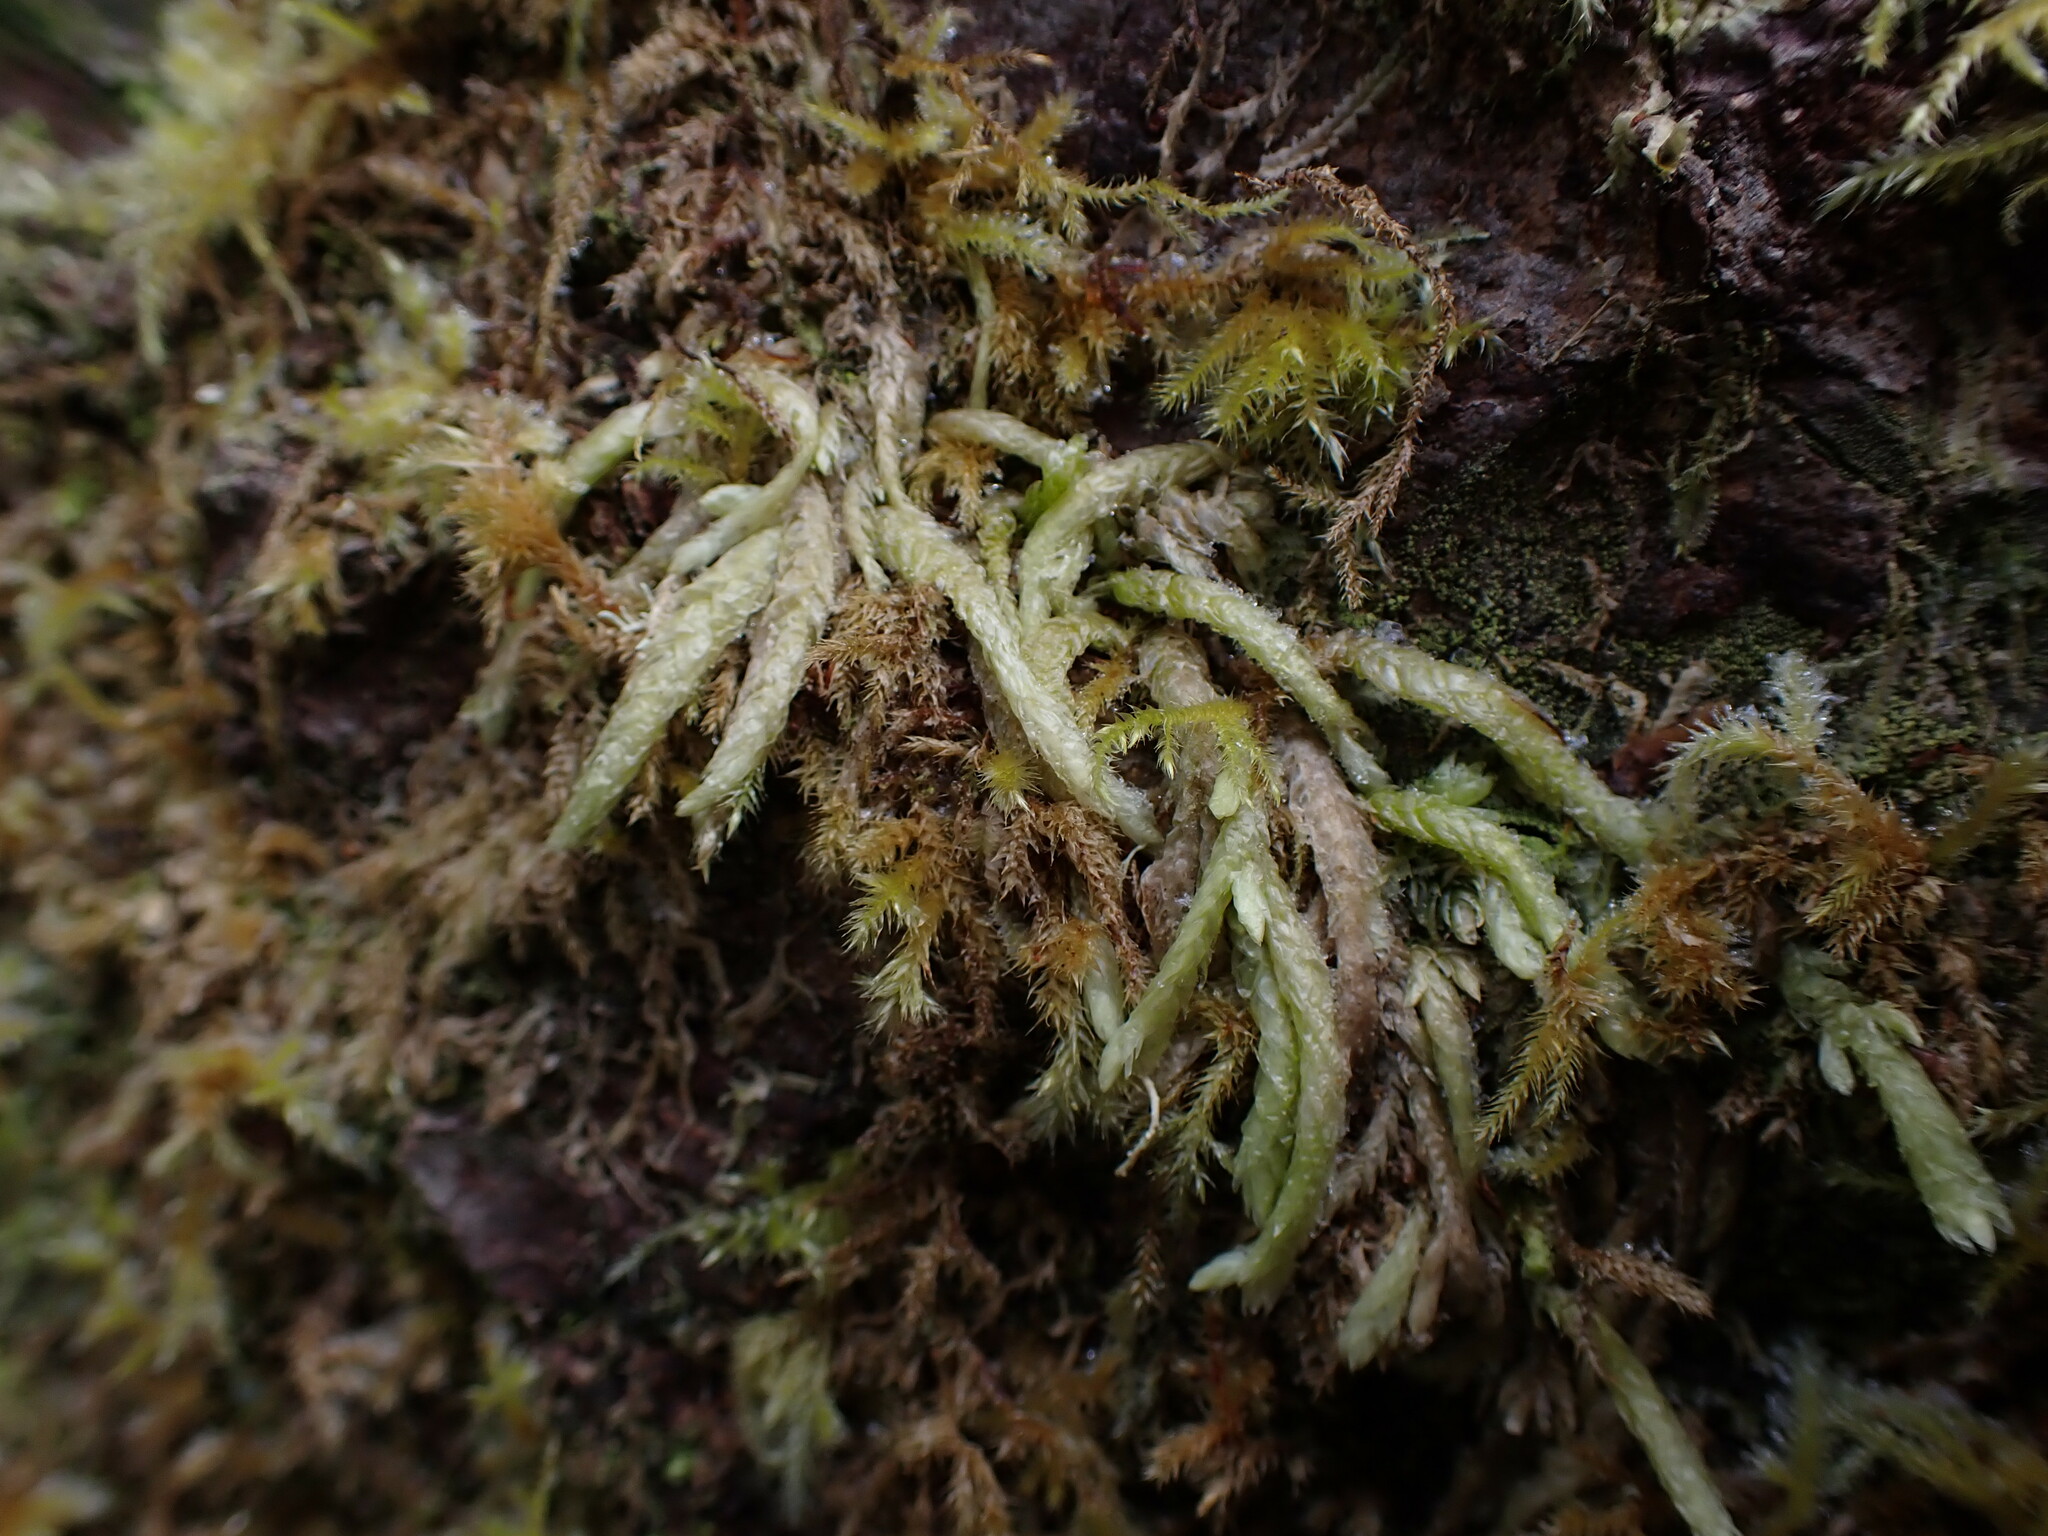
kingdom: Plantae
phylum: Bryophyta
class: Bryopsida
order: Hypnales
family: Plagiotheciaceae
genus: Plagiothecium
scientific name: Plagiothecium undulatum
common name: Waved silk-moss
